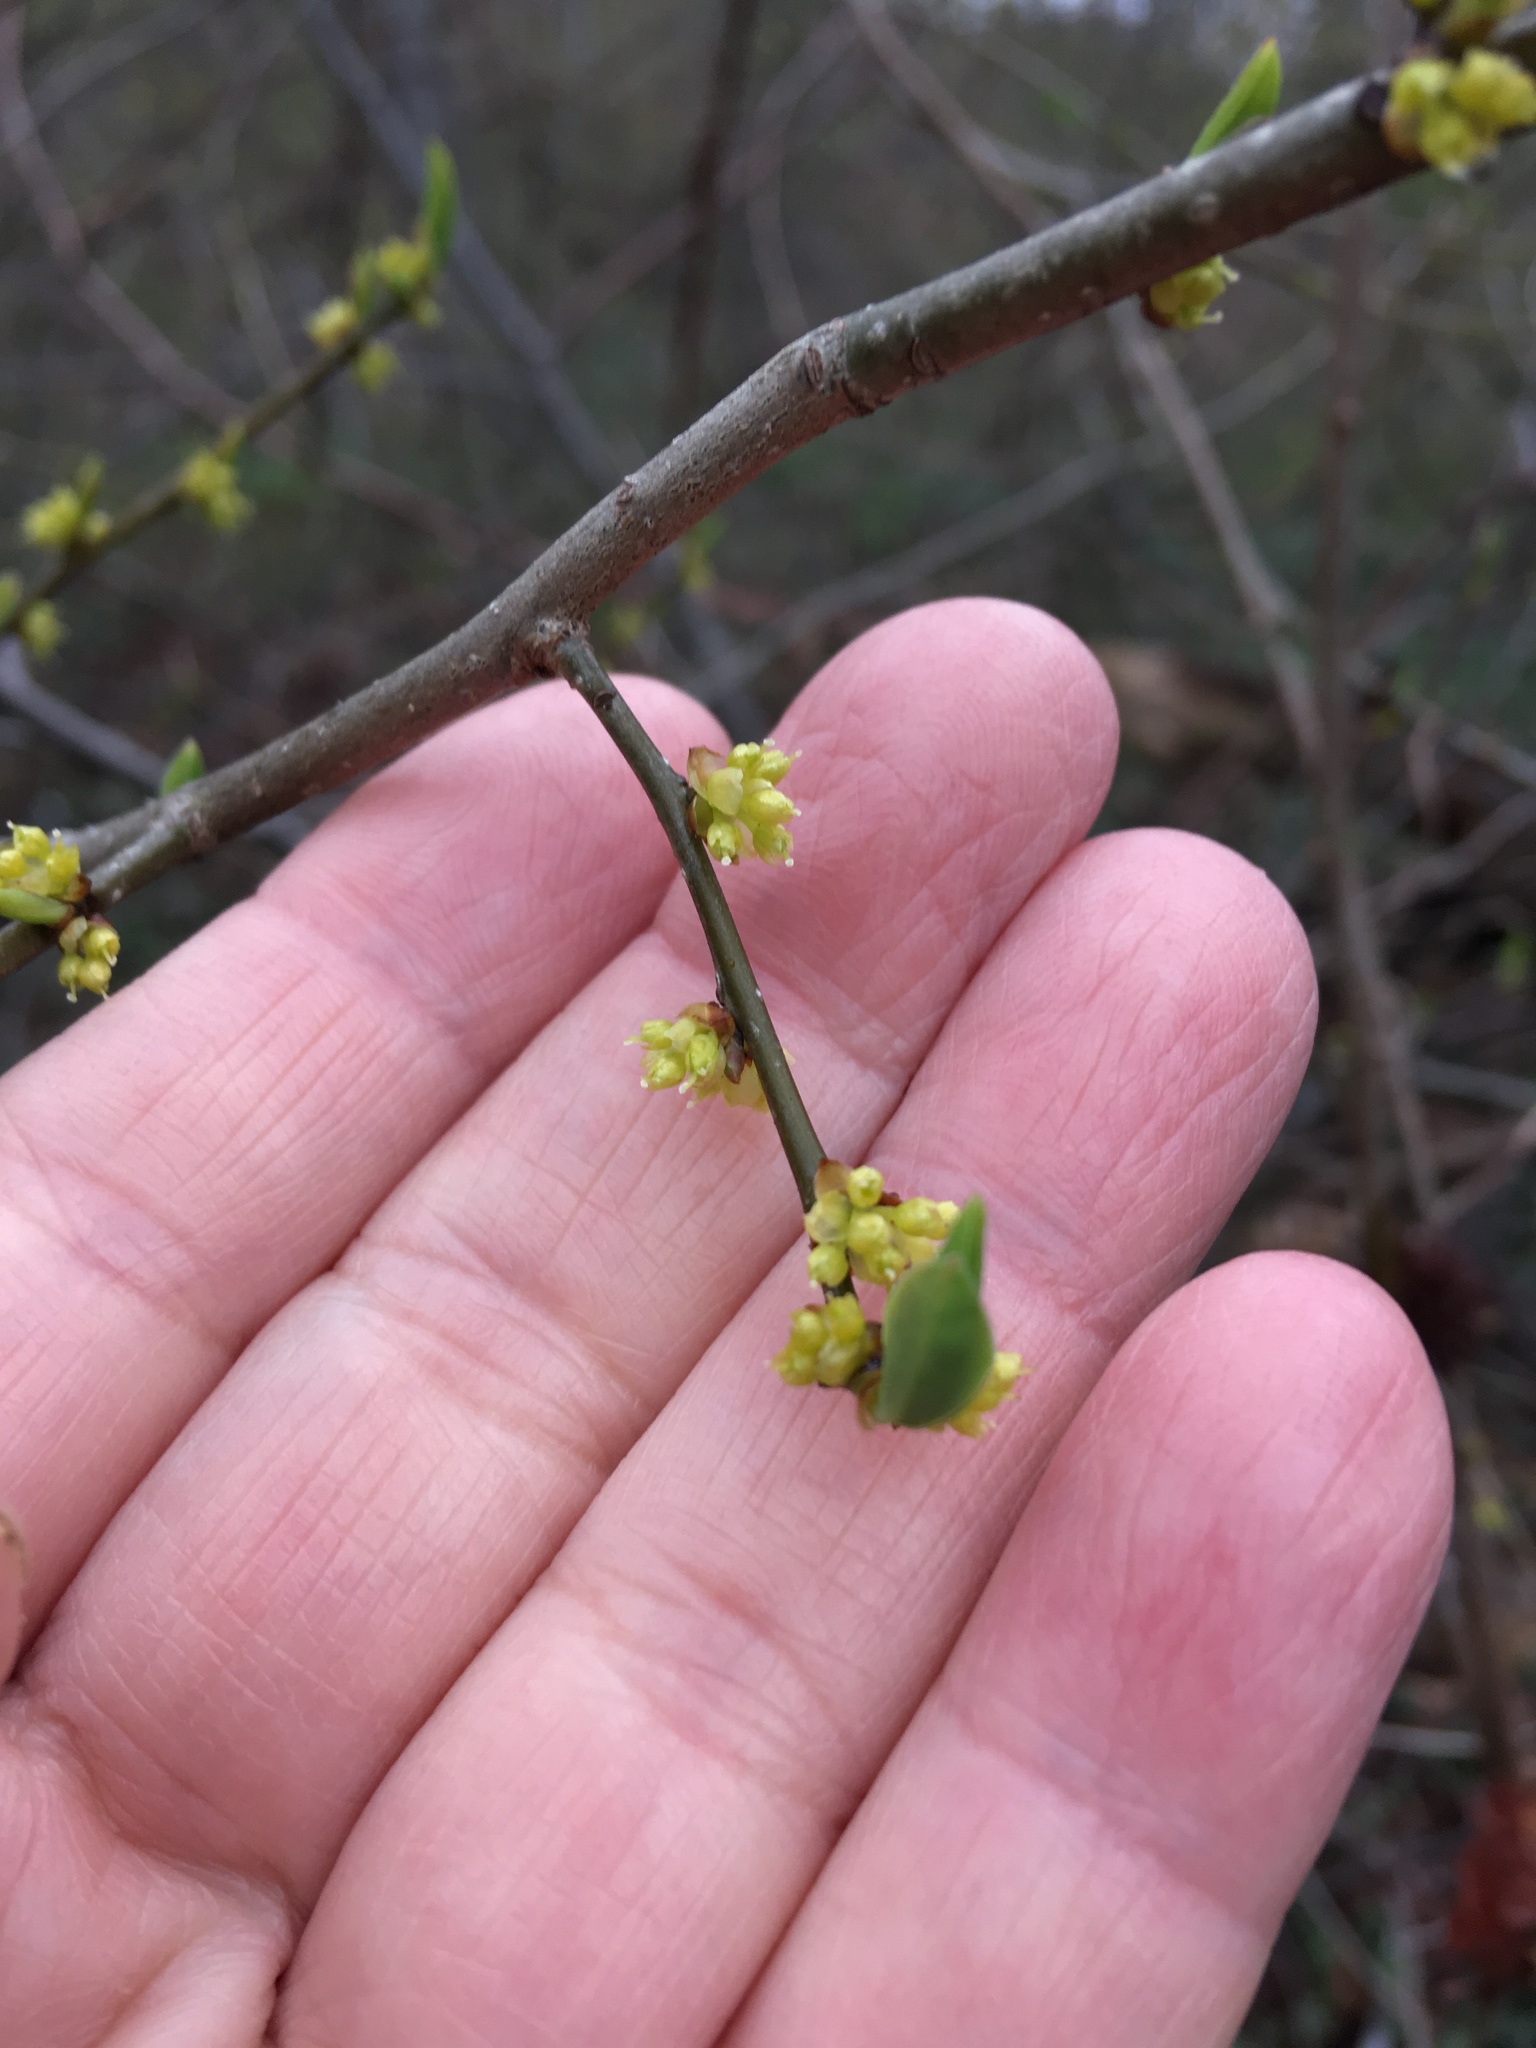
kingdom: Plantae
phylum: Tracheophyta
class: Magnoliopsida
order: Laurales
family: Lauraceae
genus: Lindera
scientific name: Lindera benzoin
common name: Spicebush
